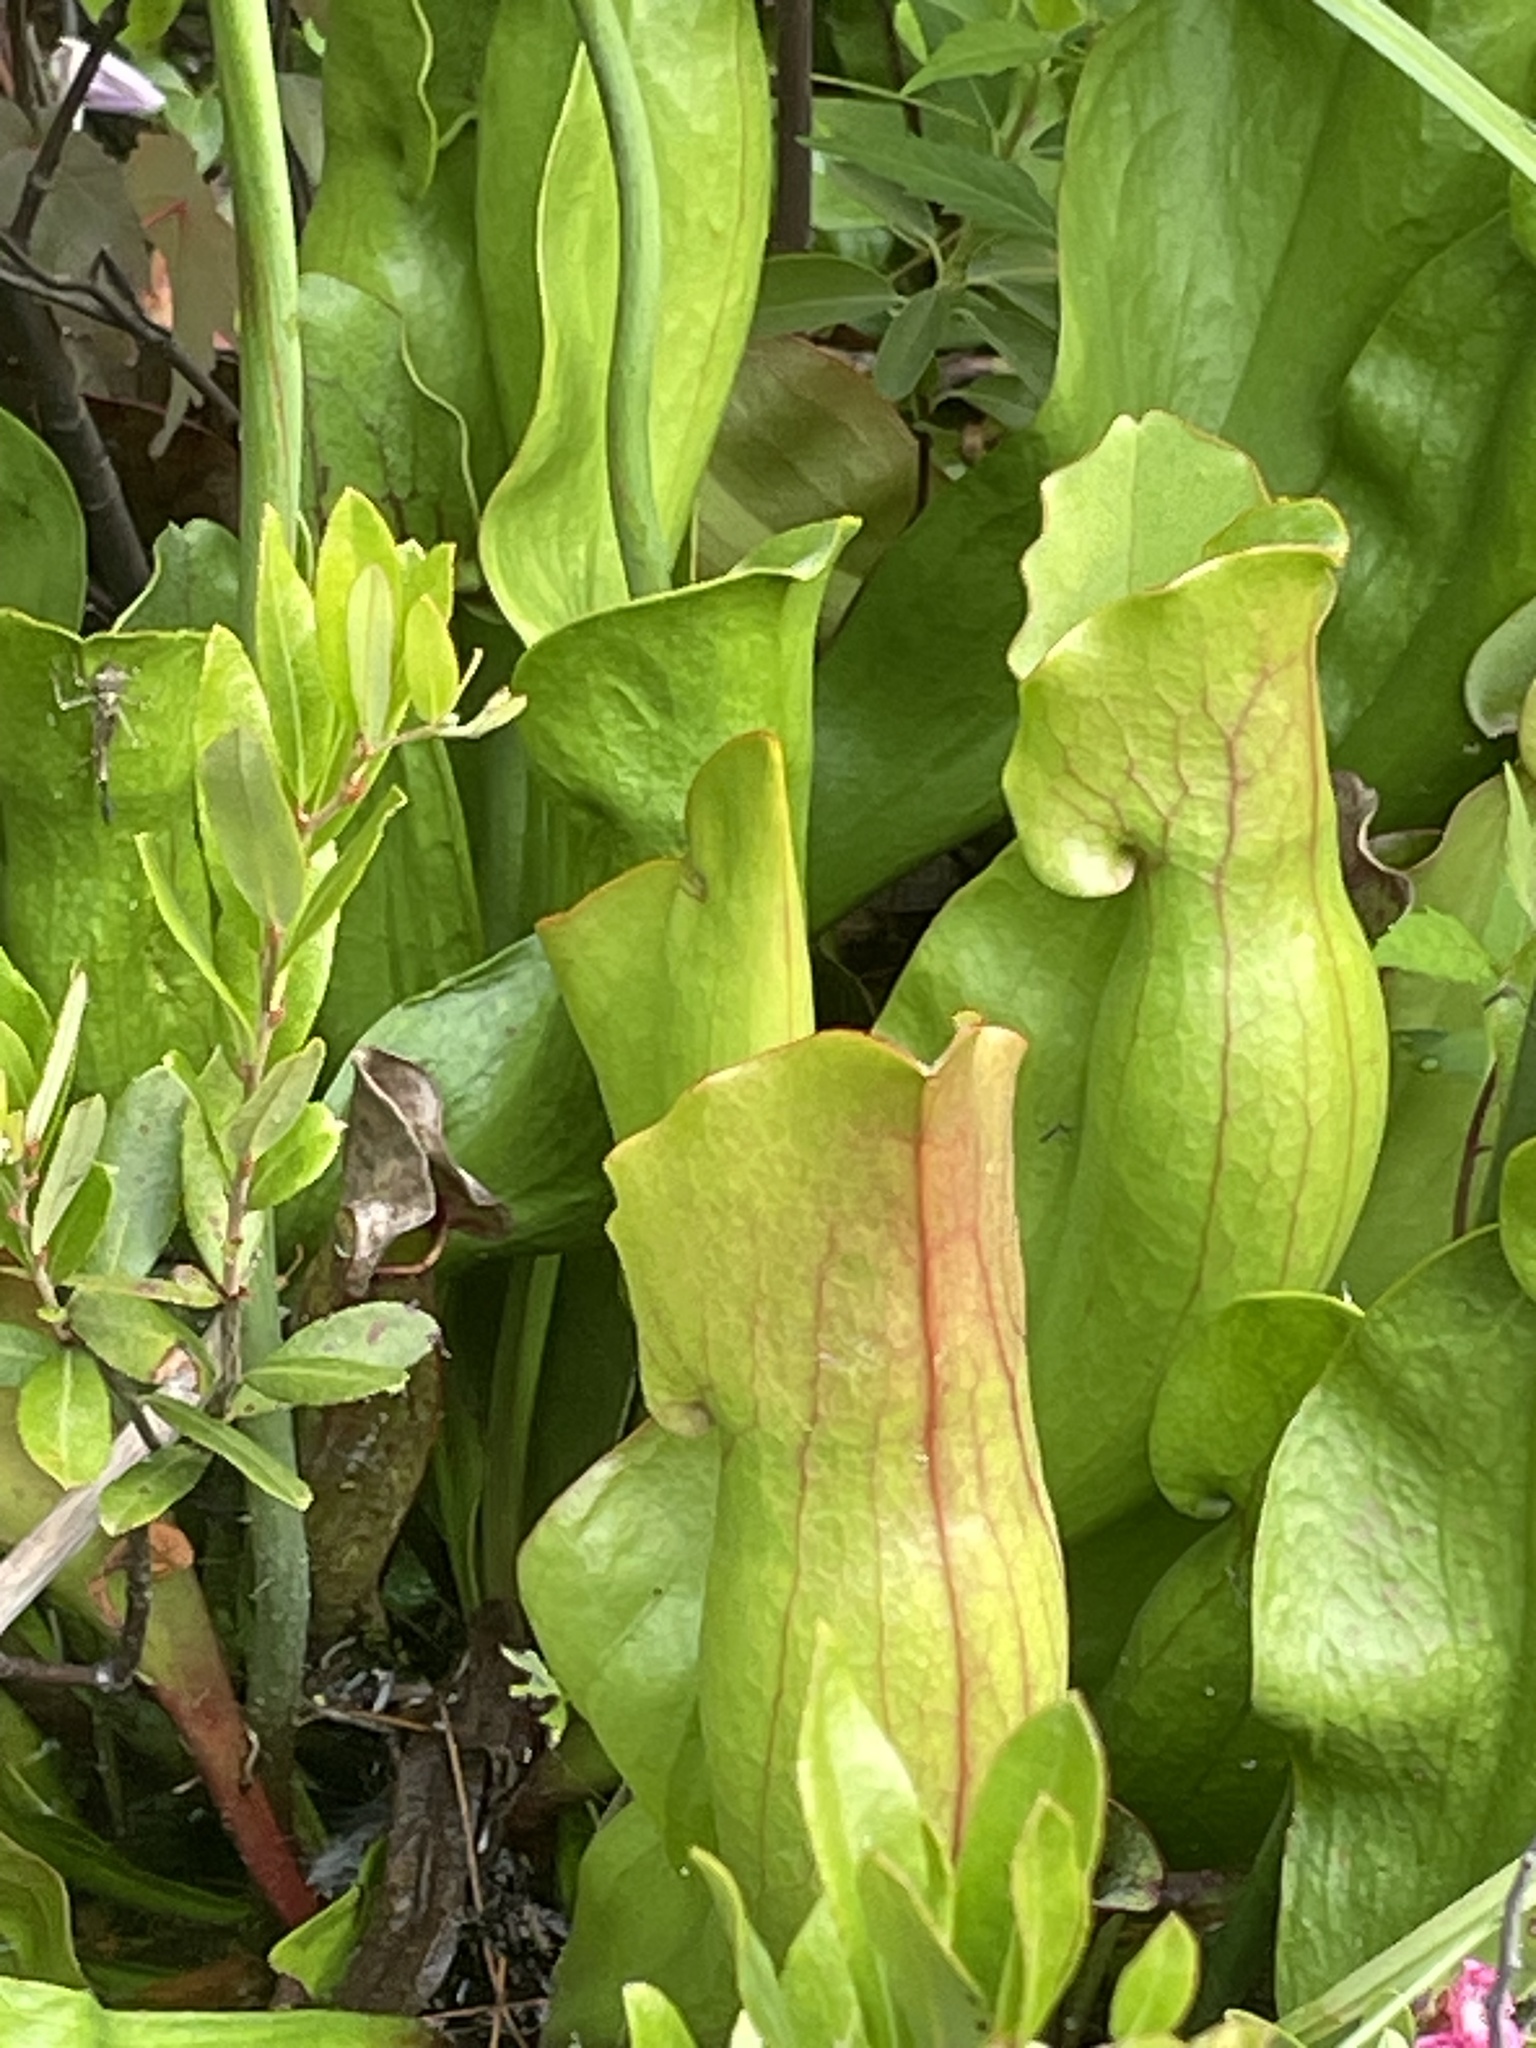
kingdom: Plantae
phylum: Tracheophyta
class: Magnoliopsida
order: Ericales
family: Sarraceniaceae
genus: Sarracenia
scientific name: Sarracenia purpurea
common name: Pitcherplant
